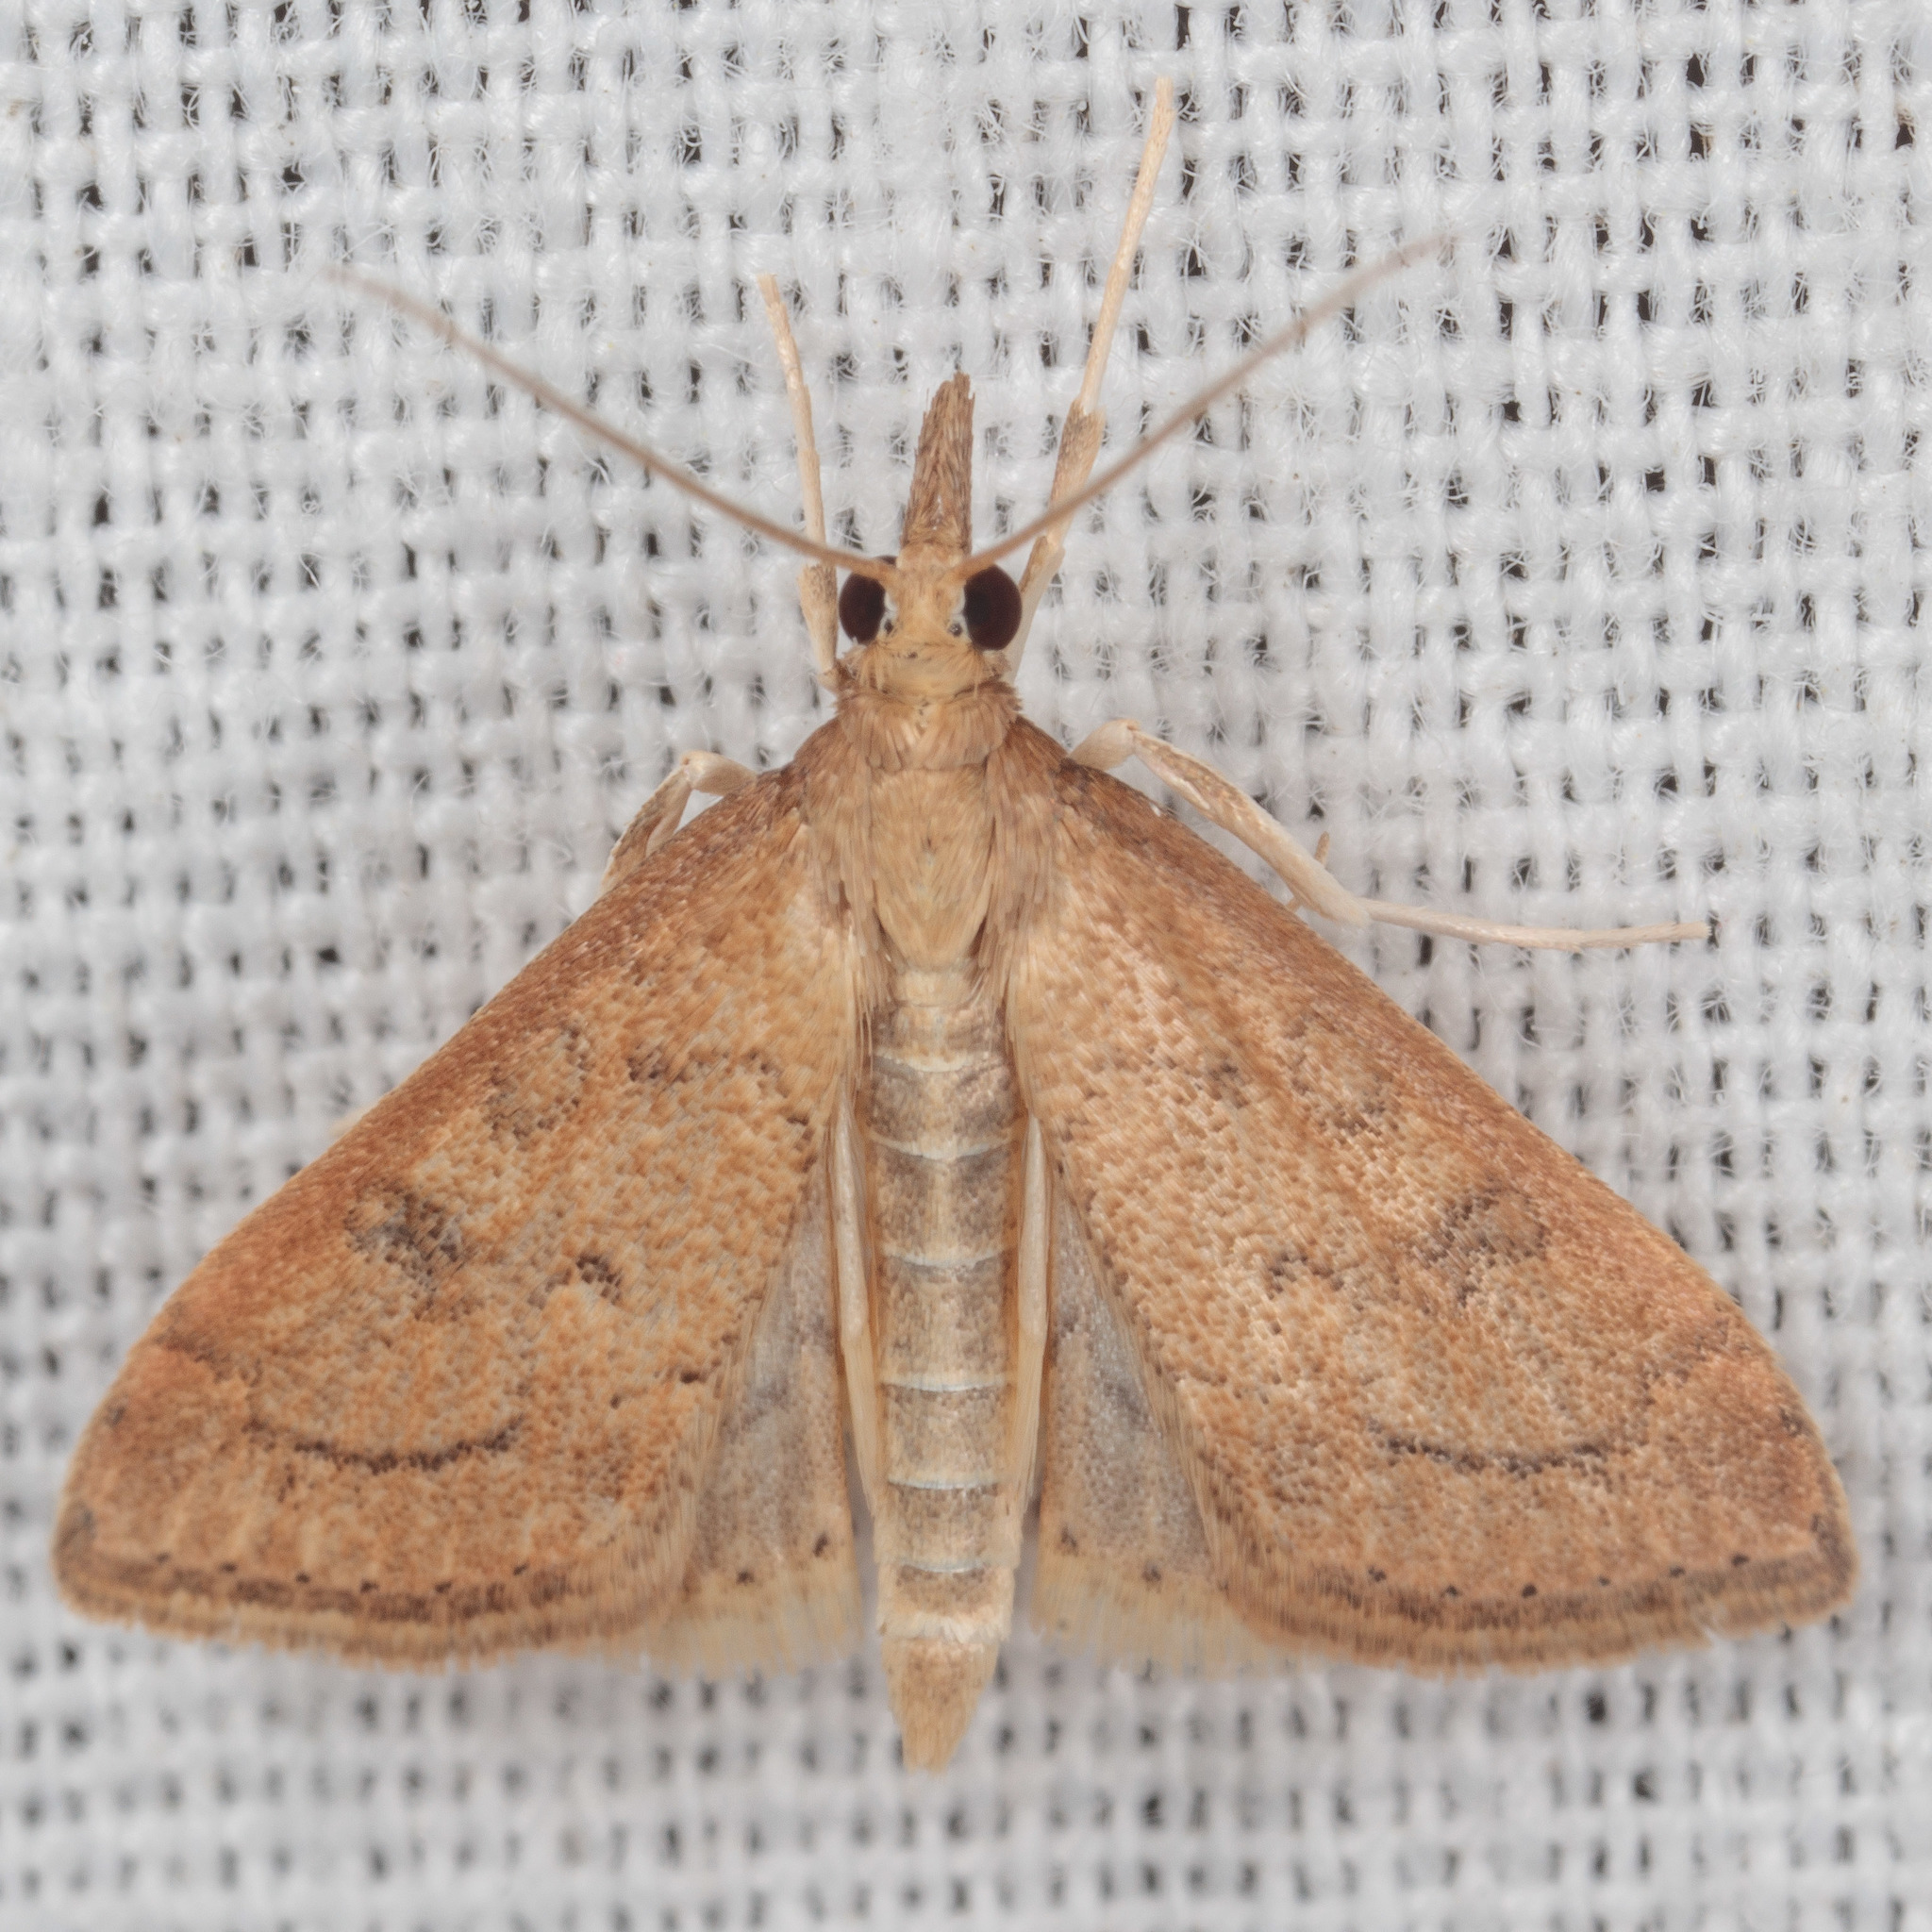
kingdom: Animalia
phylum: Arthropoda
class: Insecta
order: Lepidoptera
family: Crambidae
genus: Udea
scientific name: Udea rubigalis
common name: Celery leaftier moth
